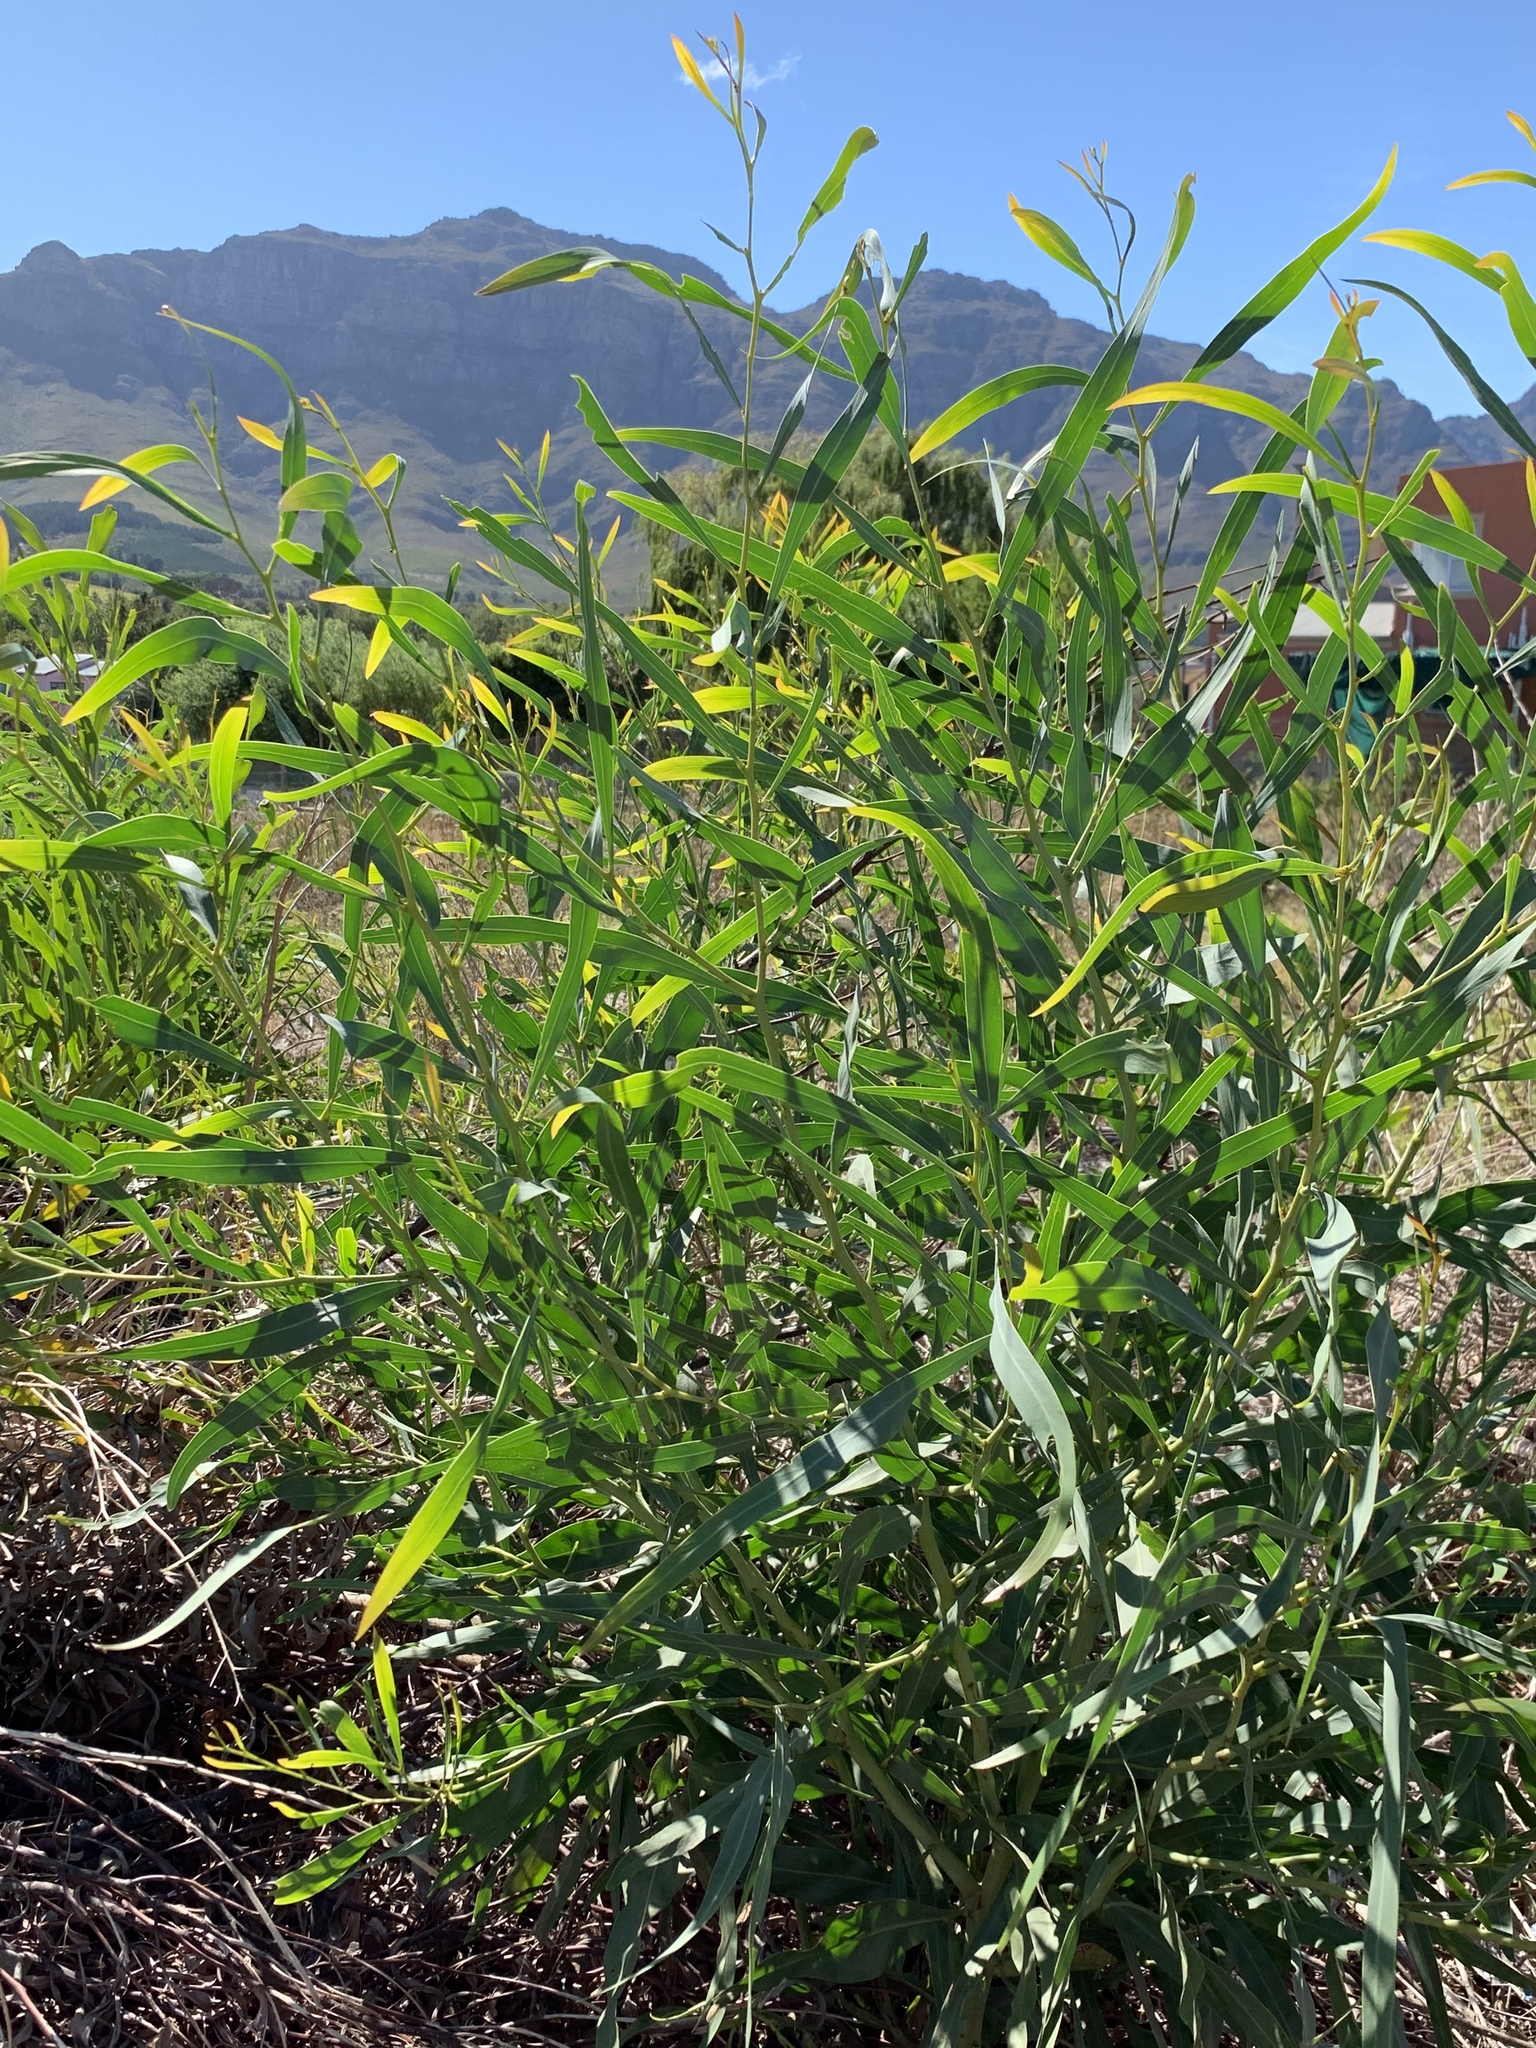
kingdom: Plantae
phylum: Tracheophyta
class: Magnoliopsida
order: Fabales
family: Fabaceae
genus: Acacia
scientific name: Acacia saligna
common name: Orange wattle
